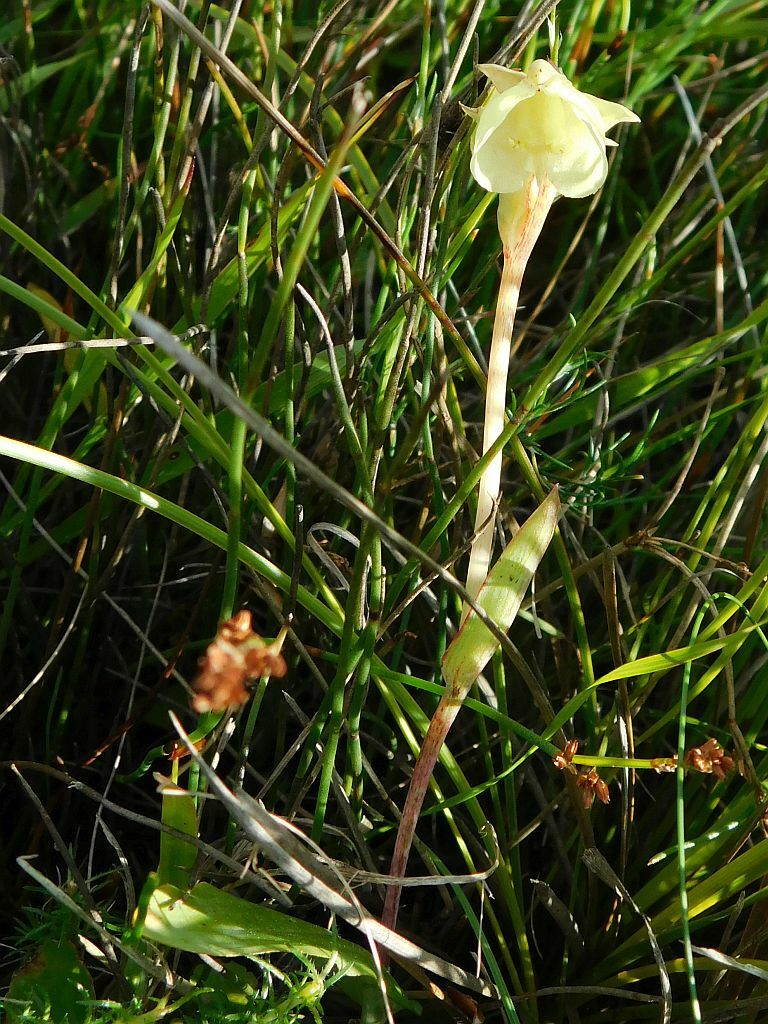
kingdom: Plantae
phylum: Tracheophyta
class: Liliopsida
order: Asparagales
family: Orchidaceae
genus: Pterygodium
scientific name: Pterygodium catholicum
